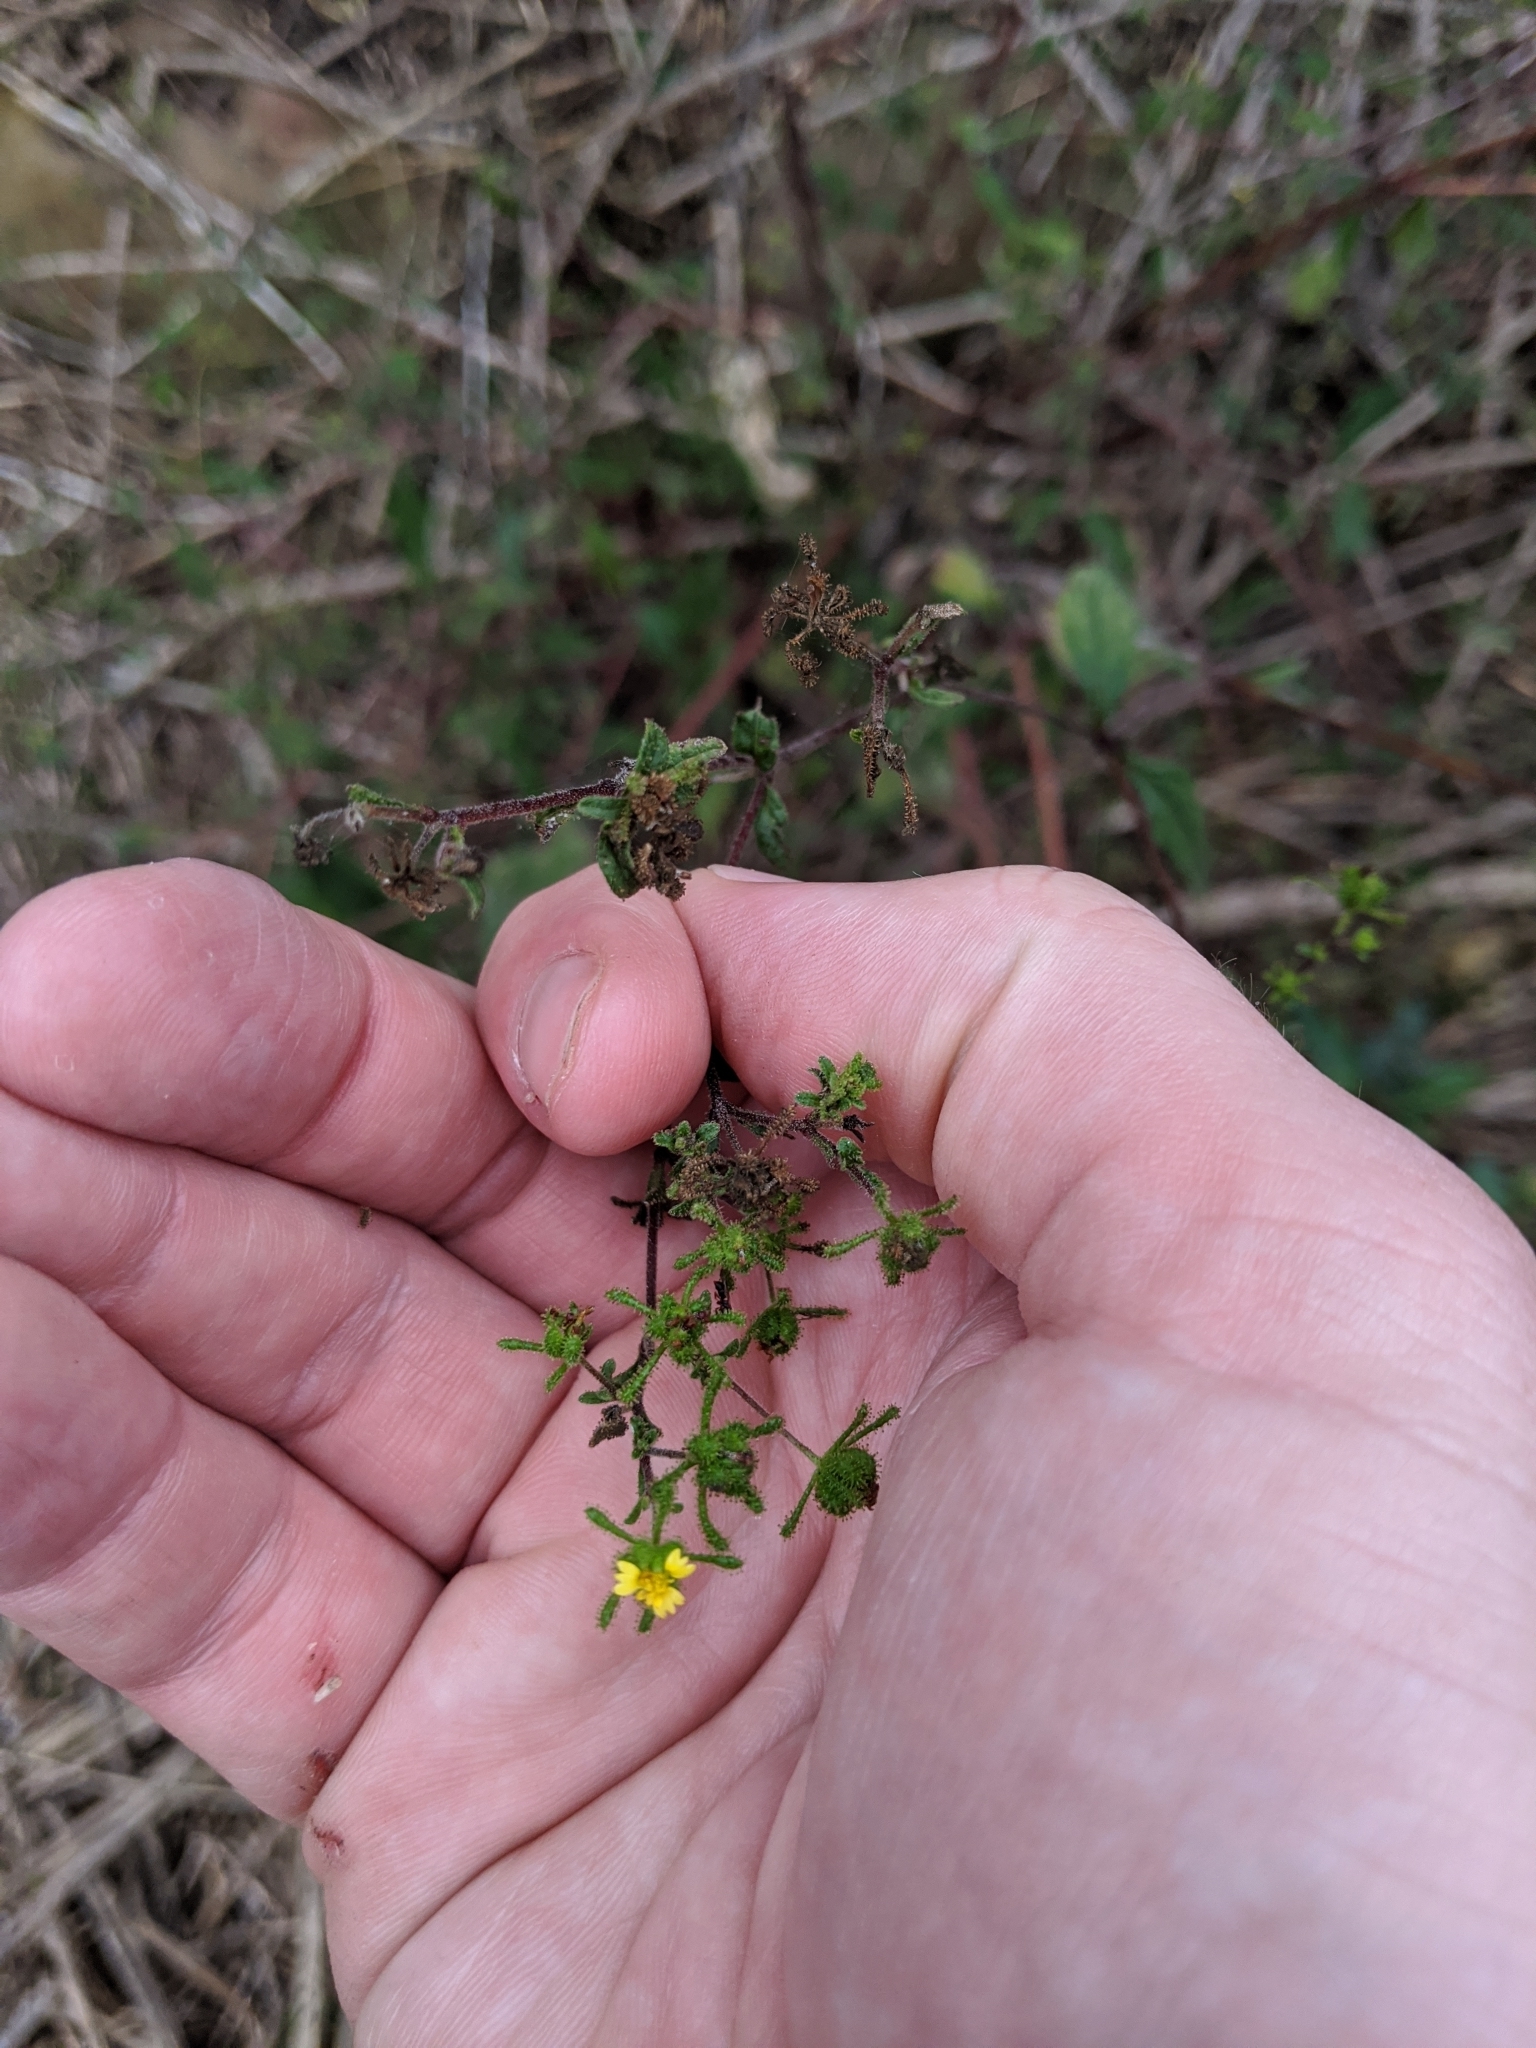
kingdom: Plantae
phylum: Tracheophyta
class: Magnoliopsida
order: Asterales
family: Asteraceae
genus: Sigesbeckia
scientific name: Sigesbeckia orientalis
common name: Eastern st paul's-wort
